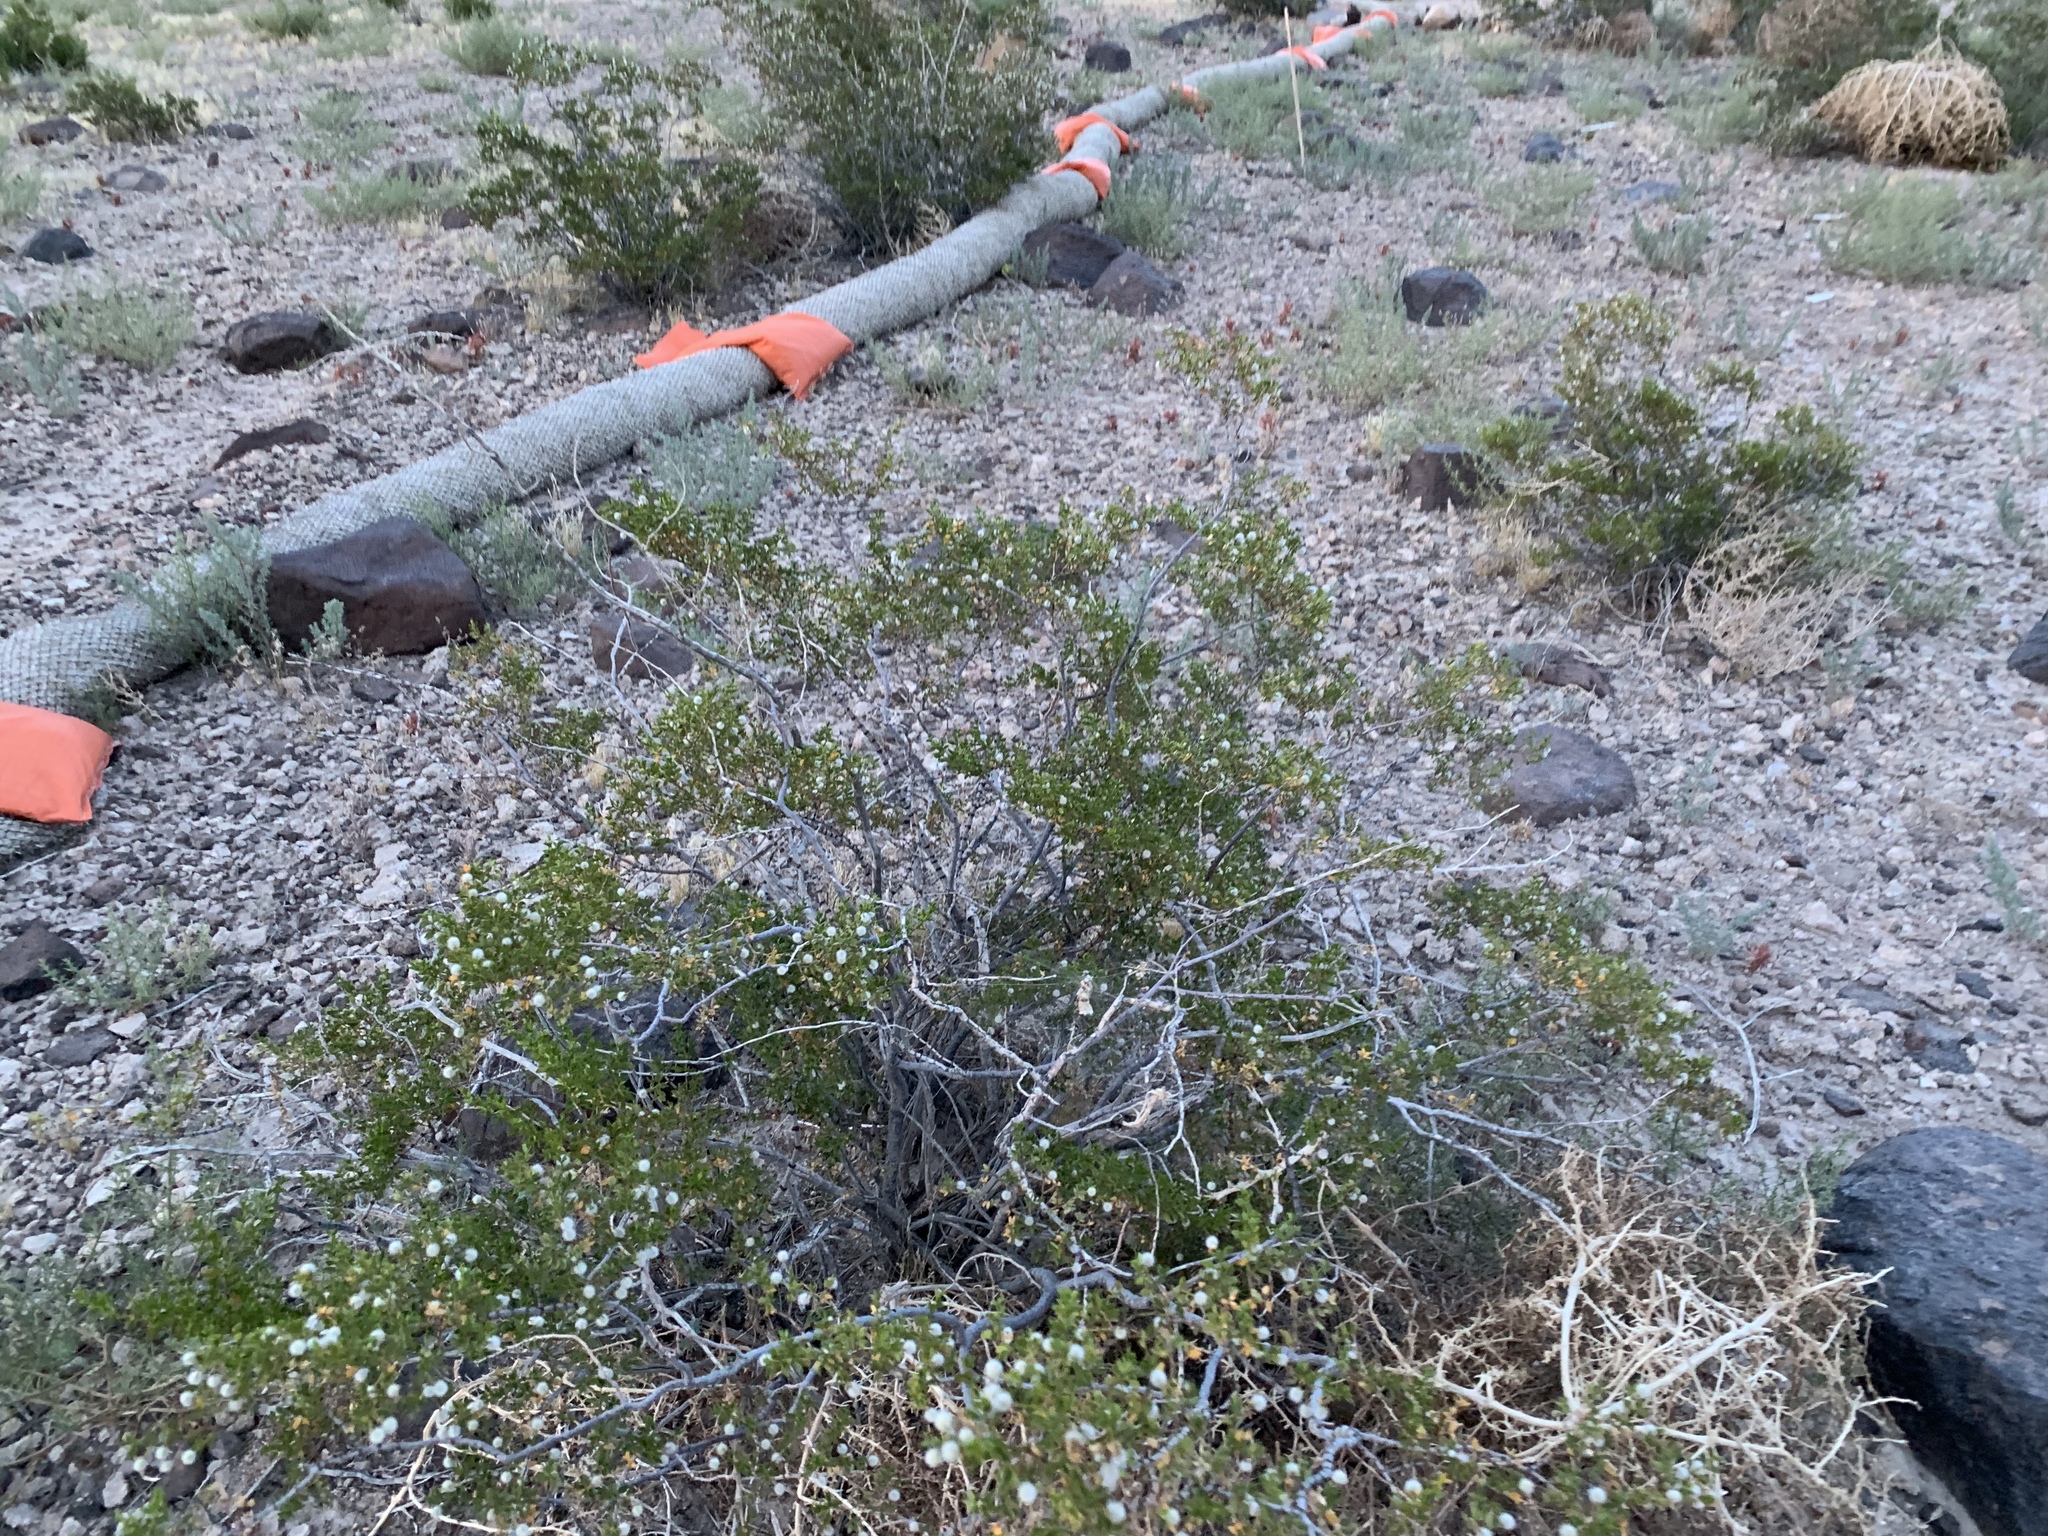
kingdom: Plantae
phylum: Tracheophyta
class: Magnoliopsida
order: Zygophyllales
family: Zygophyllaceae
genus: Larrea
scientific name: Larrea tridentata
